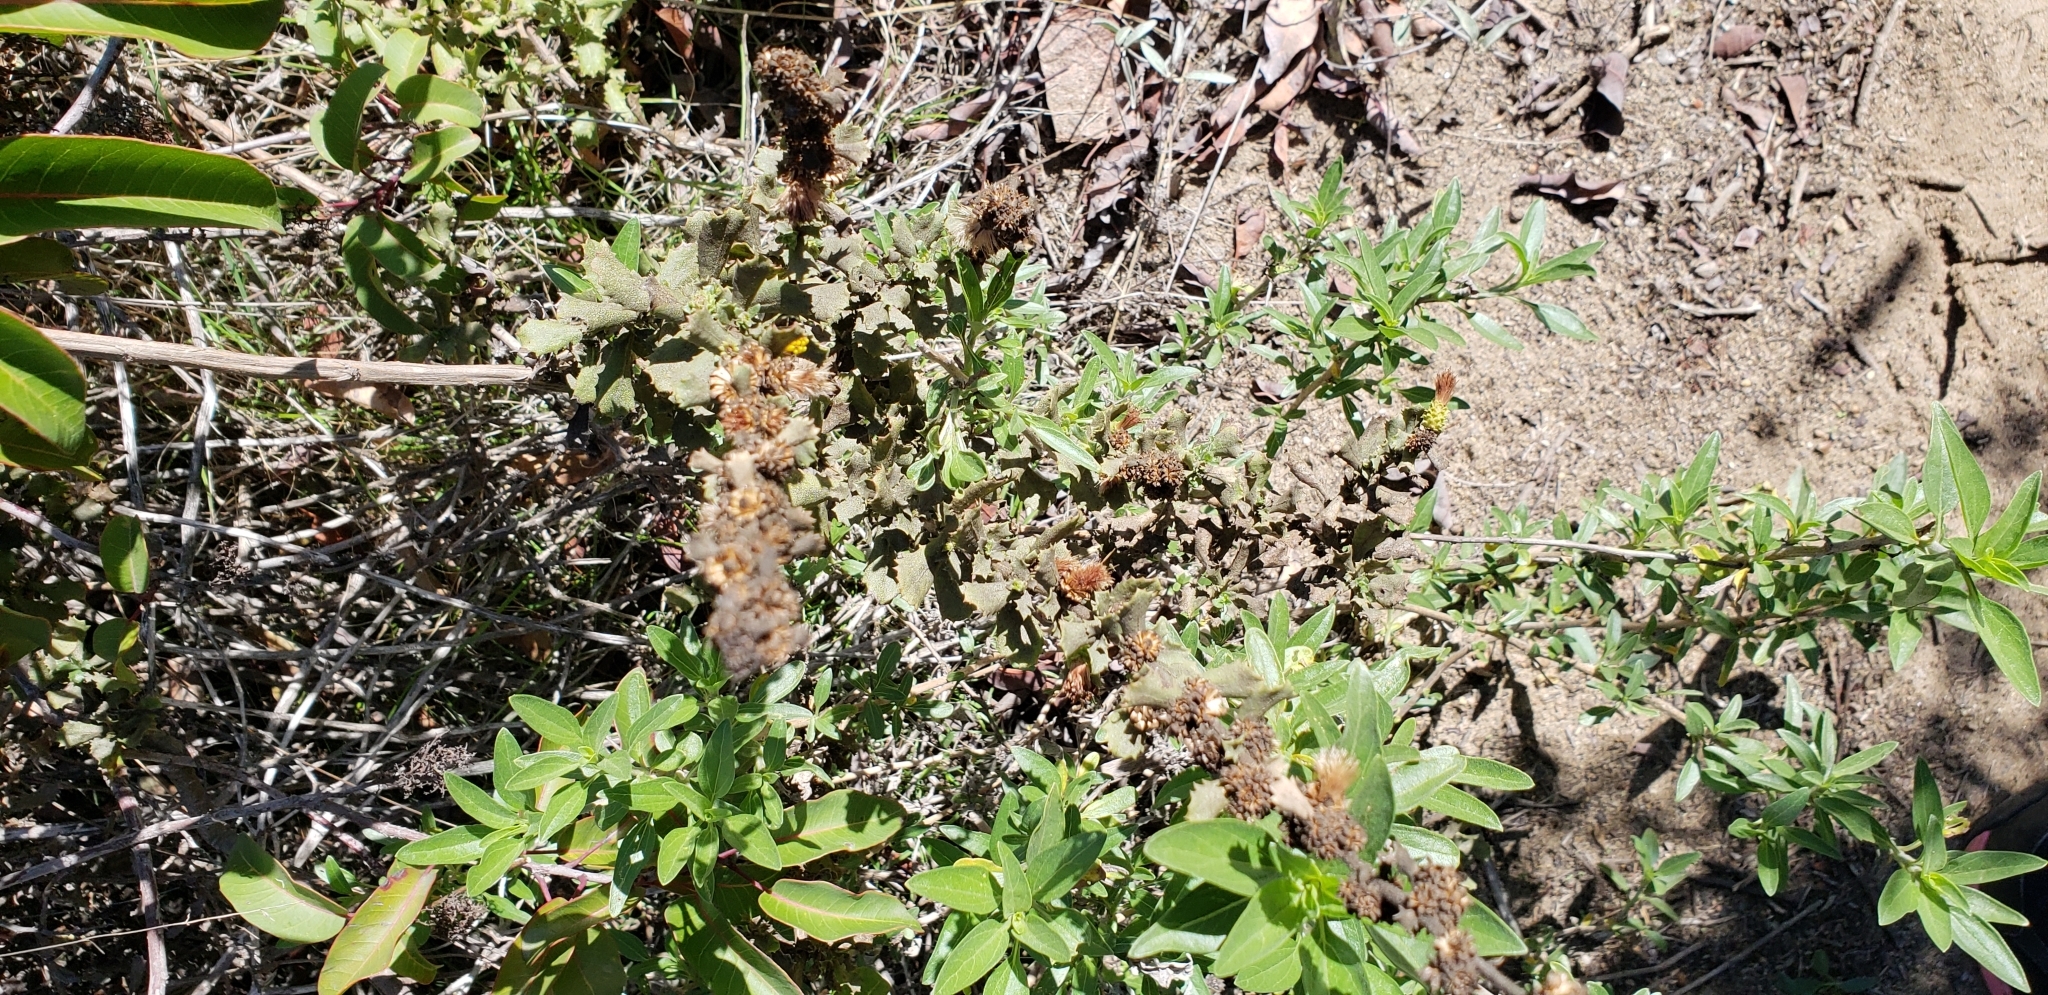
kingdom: Plantae
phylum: Tracheophyta
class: Magnoliopsida
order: Asterales
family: Asteraceae
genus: Hazardia
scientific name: Hazardia squarrosa
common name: Saw-tooth goldenbush
